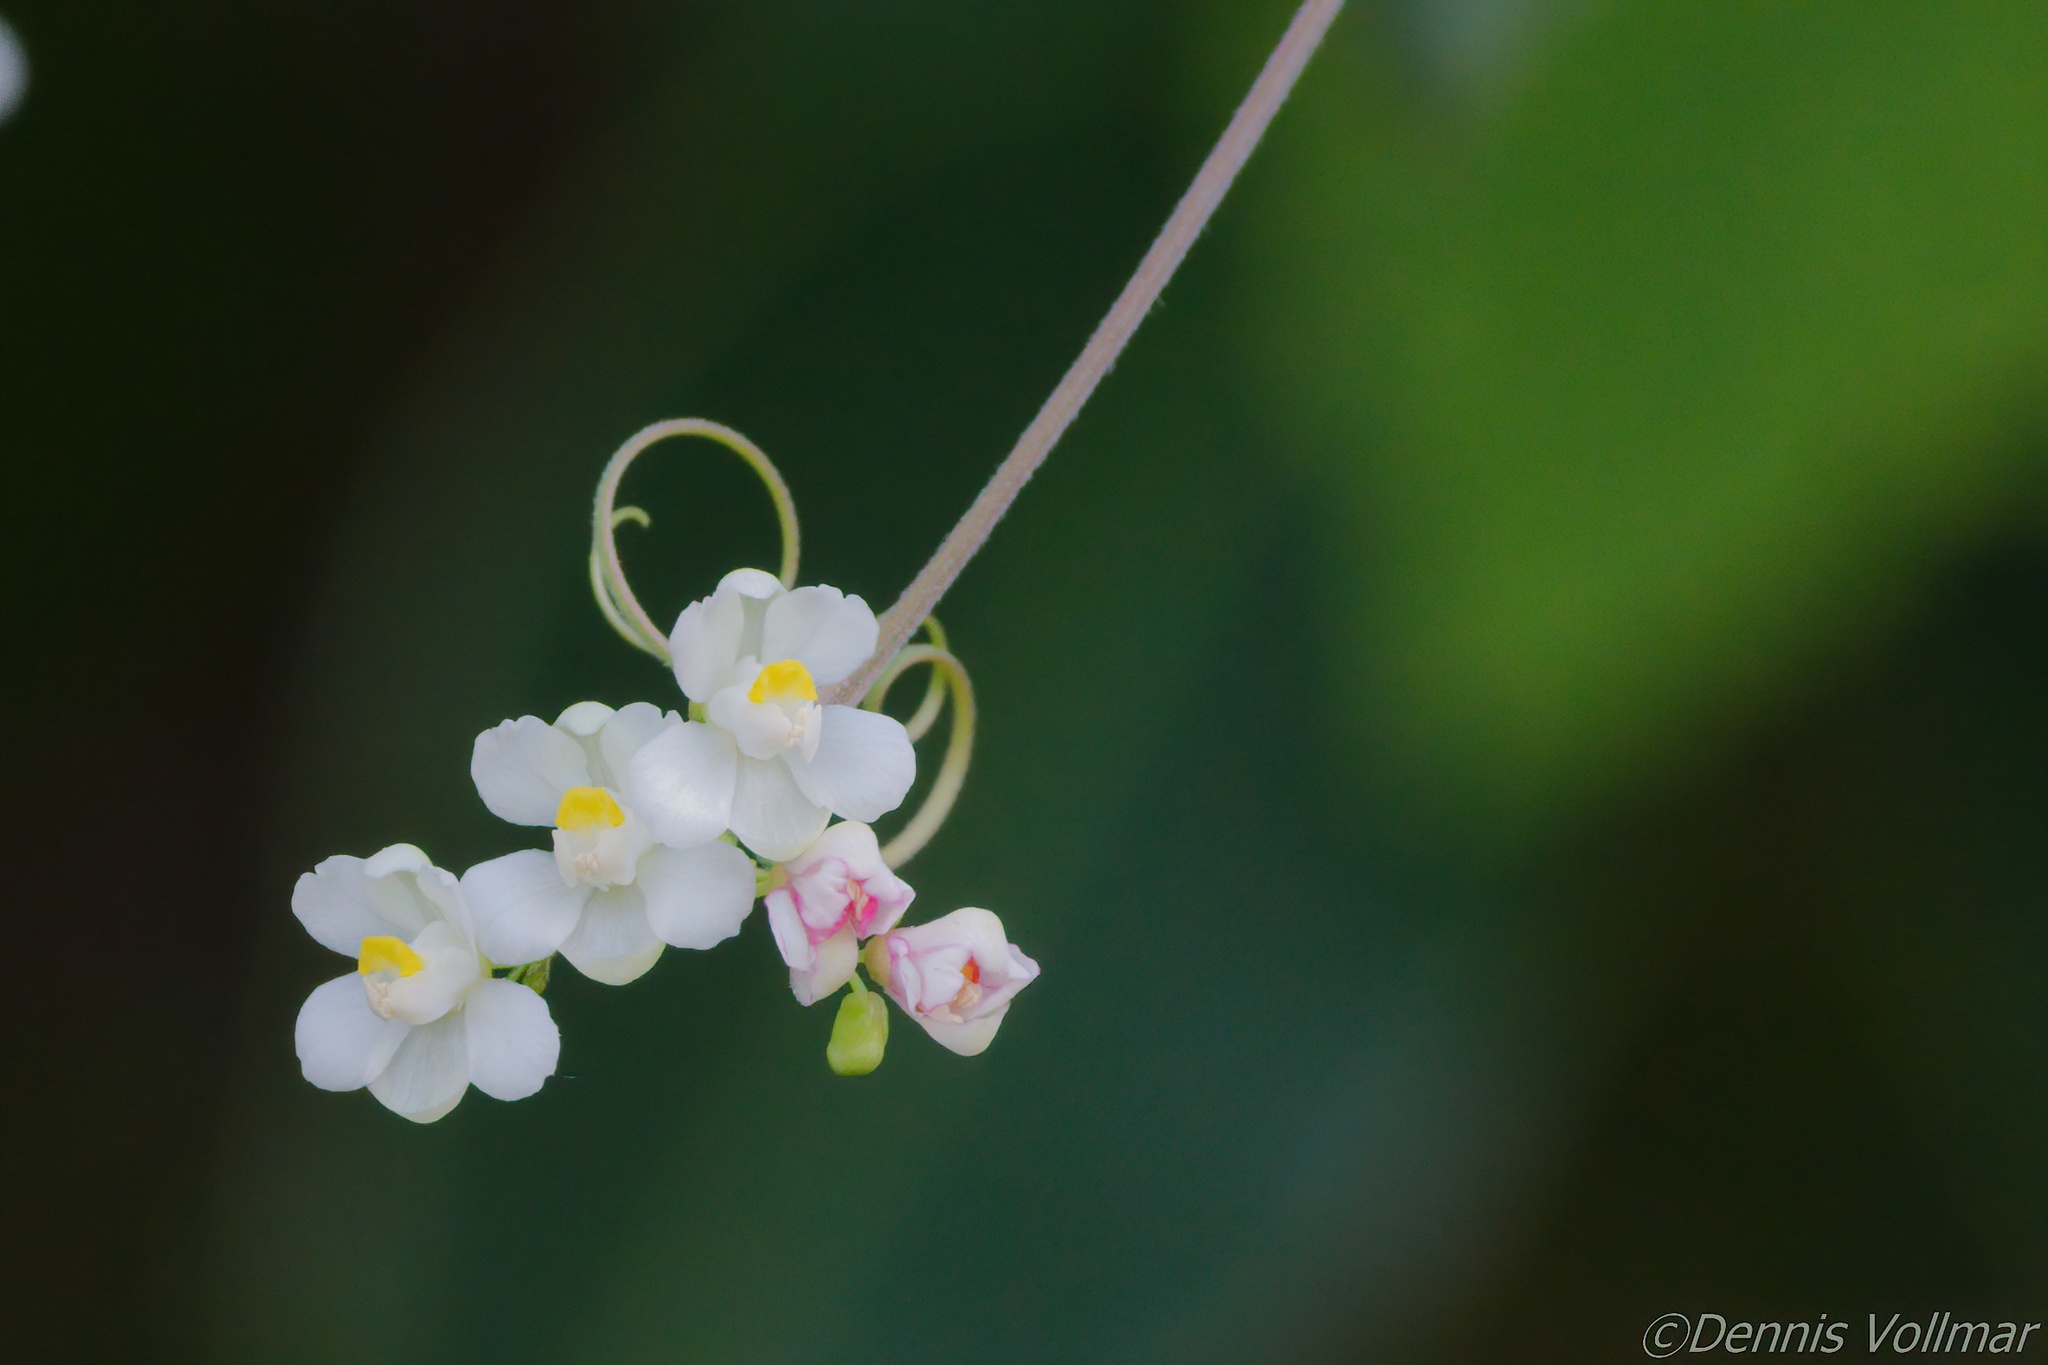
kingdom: Plantae
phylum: Tracheophyta
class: Magnoliopsida
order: Sapindales
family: Sapindaceae
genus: Cardiospermum
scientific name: Cardiospermum corindum
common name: Faux persil
